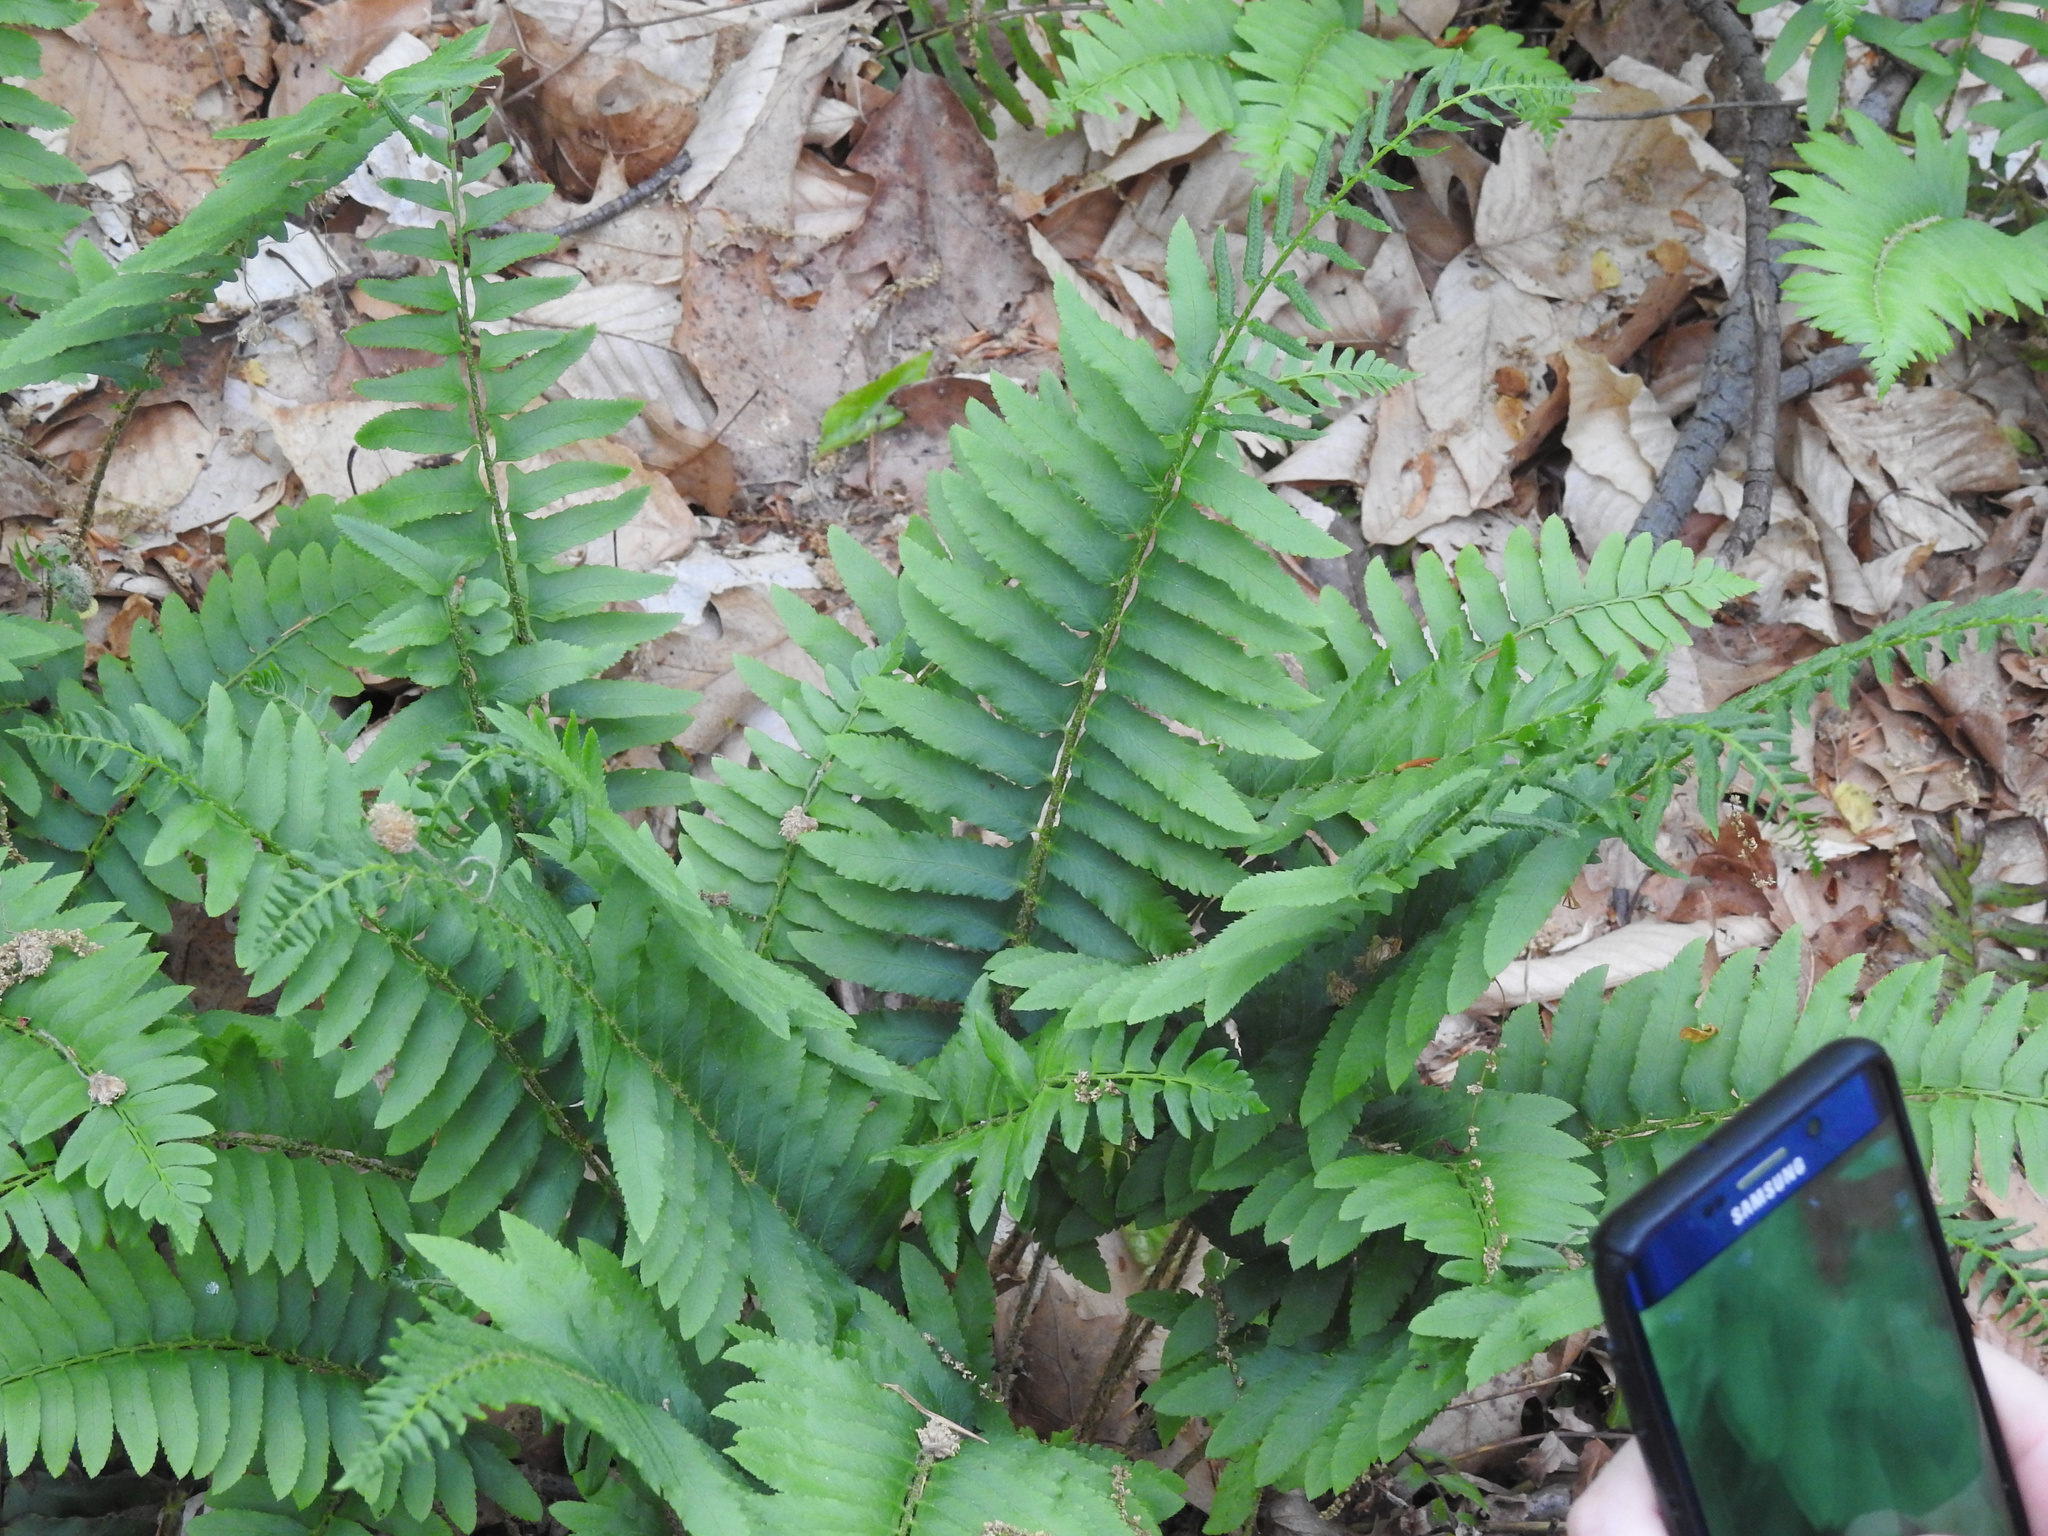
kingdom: Plantae
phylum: Tracheophyta
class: Polypodiopsida
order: Polypodiales
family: Dryopteridaceae
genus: Polystichum
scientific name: Polystichum acrostichoides
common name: Christmas fern
